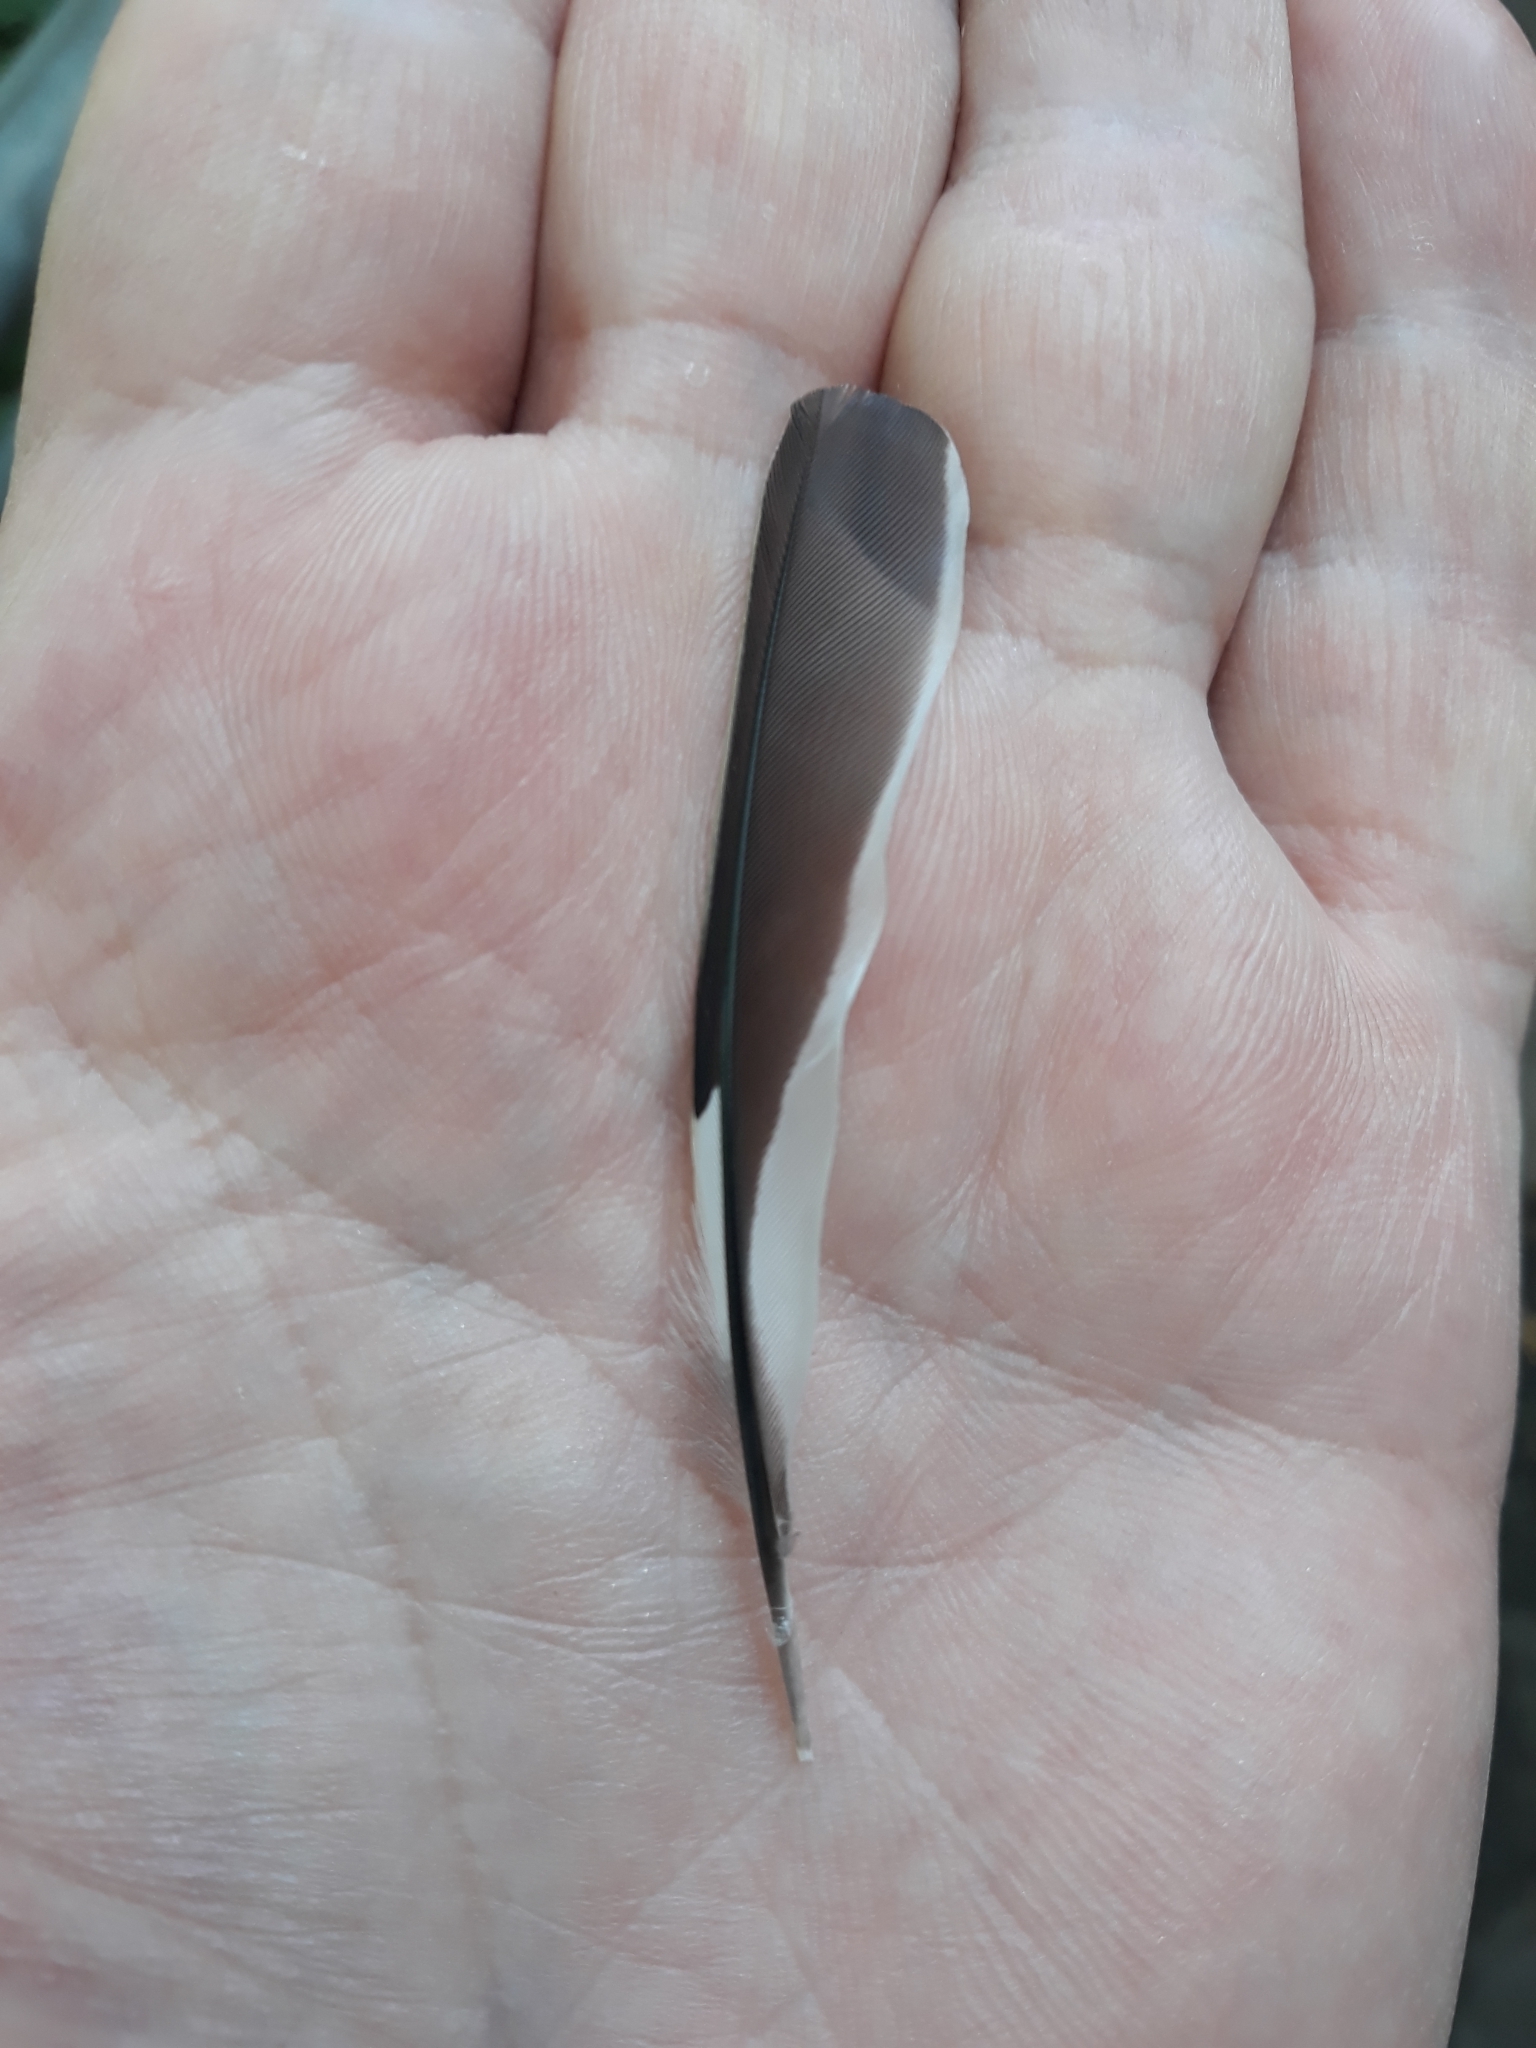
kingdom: Animalia
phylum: Chordata
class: Aves
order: Passeriformes
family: Fringillidae
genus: Fringilla
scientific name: Fringilla coelebs
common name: Common chaffinch
